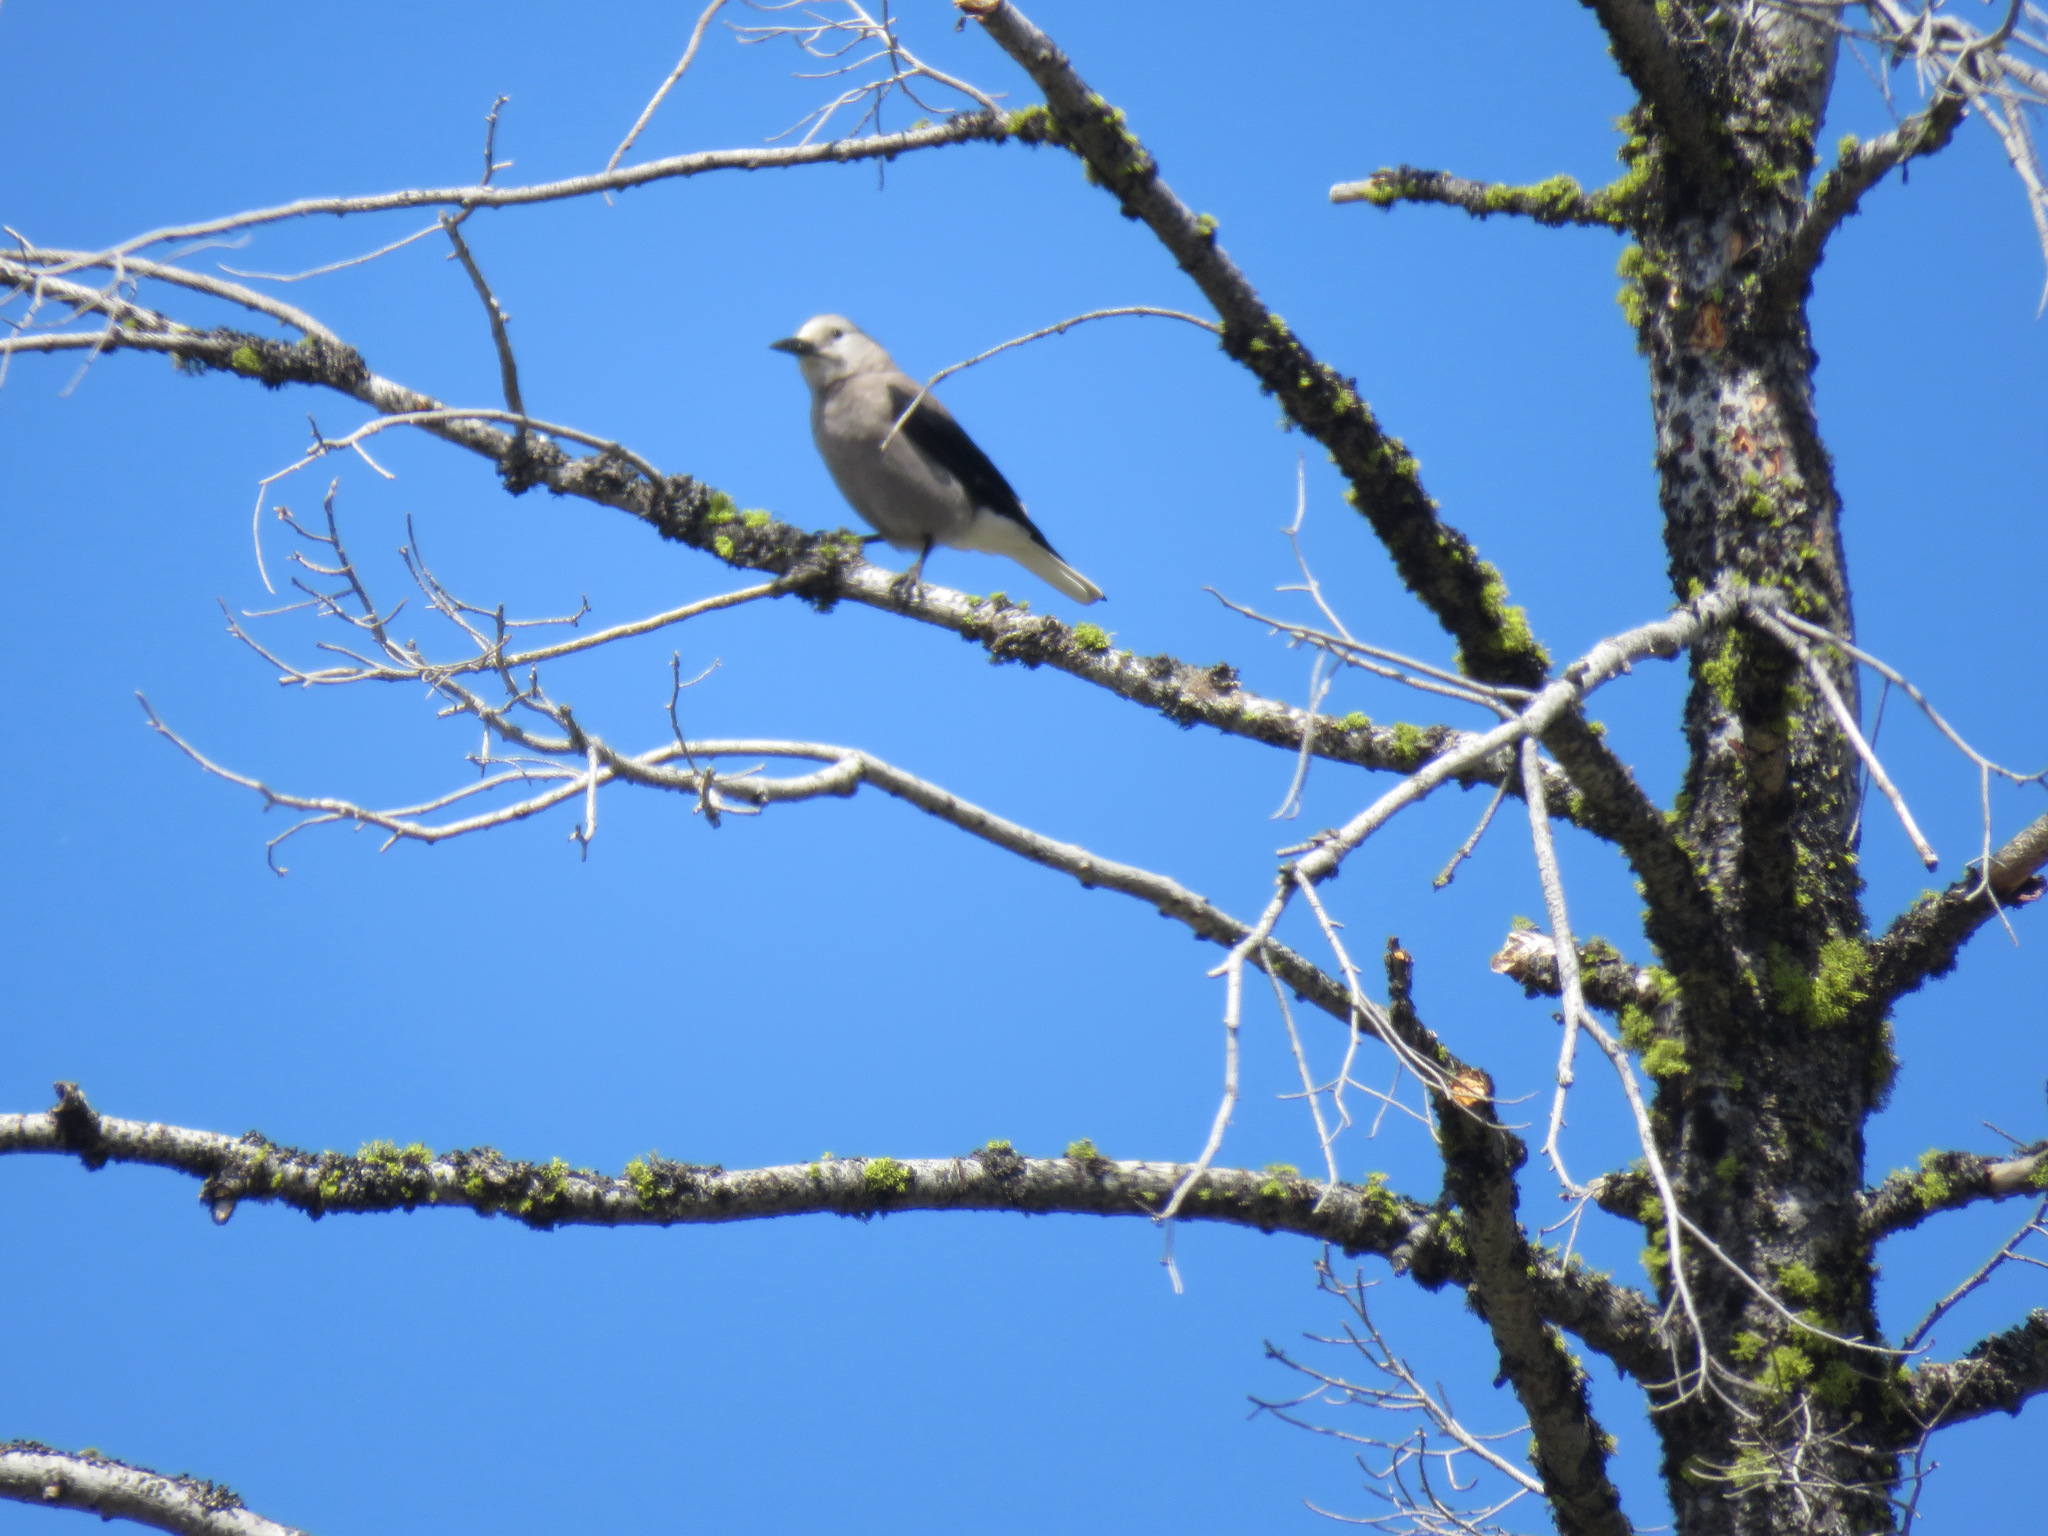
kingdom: Animalia
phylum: Chordata
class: Aves
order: Passeriformes
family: Corvidae
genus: Nucifraga
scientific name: Nucifraga columbiana
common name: Clark's nutcracker
